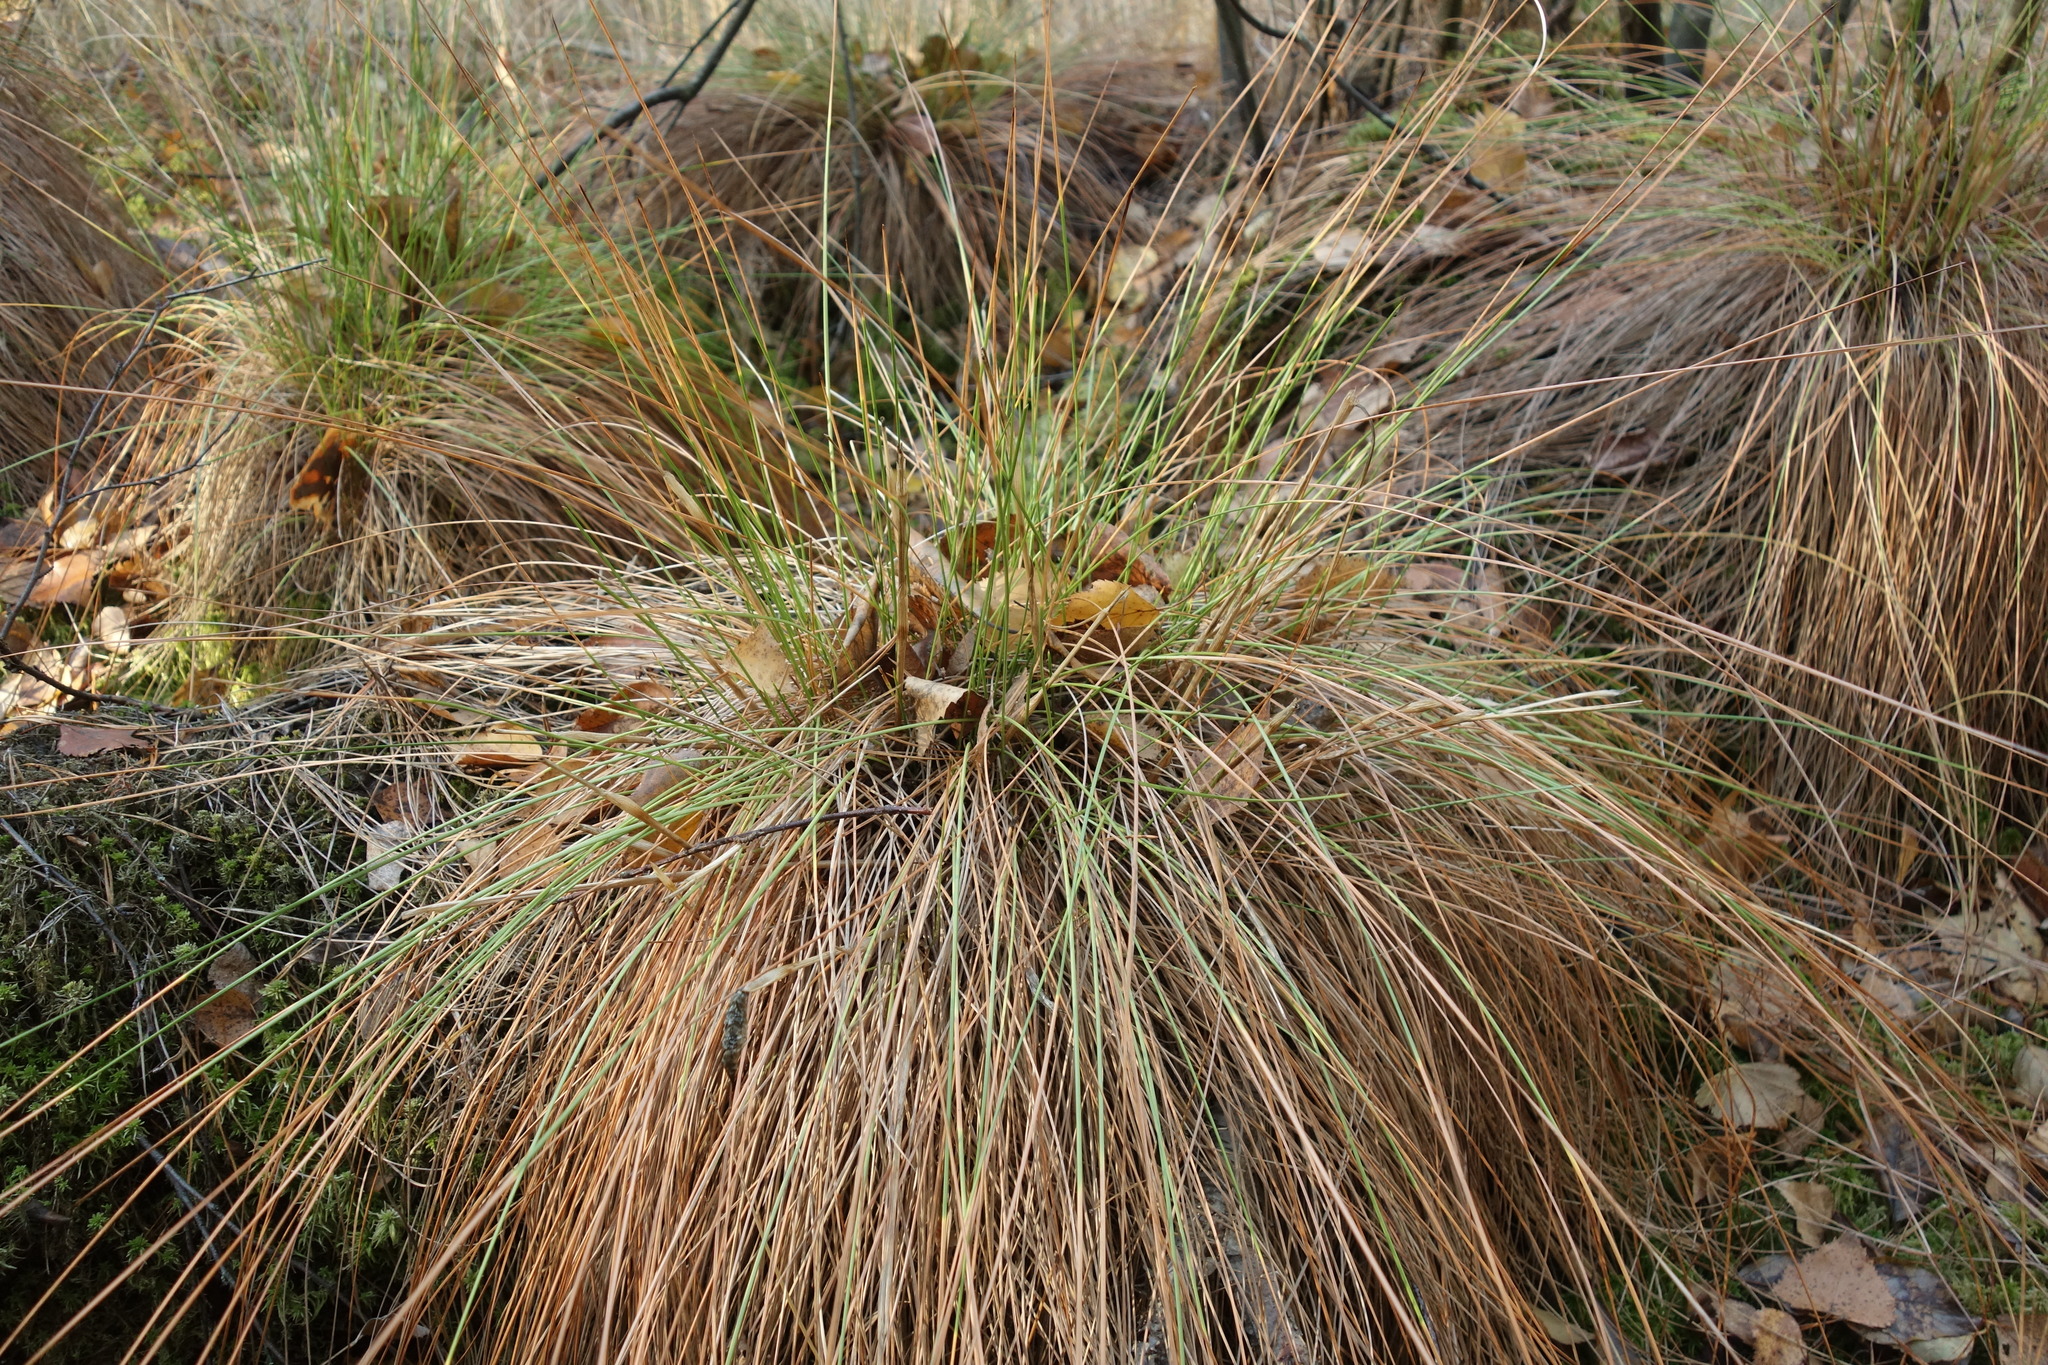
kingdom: Plantae
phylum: Tracheophyta
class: Liliopsida
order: Poales
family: Cyperaceae
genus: Eriophorum
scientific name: Eriophorum vaginatum
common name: Hare's-tail cottongrass
